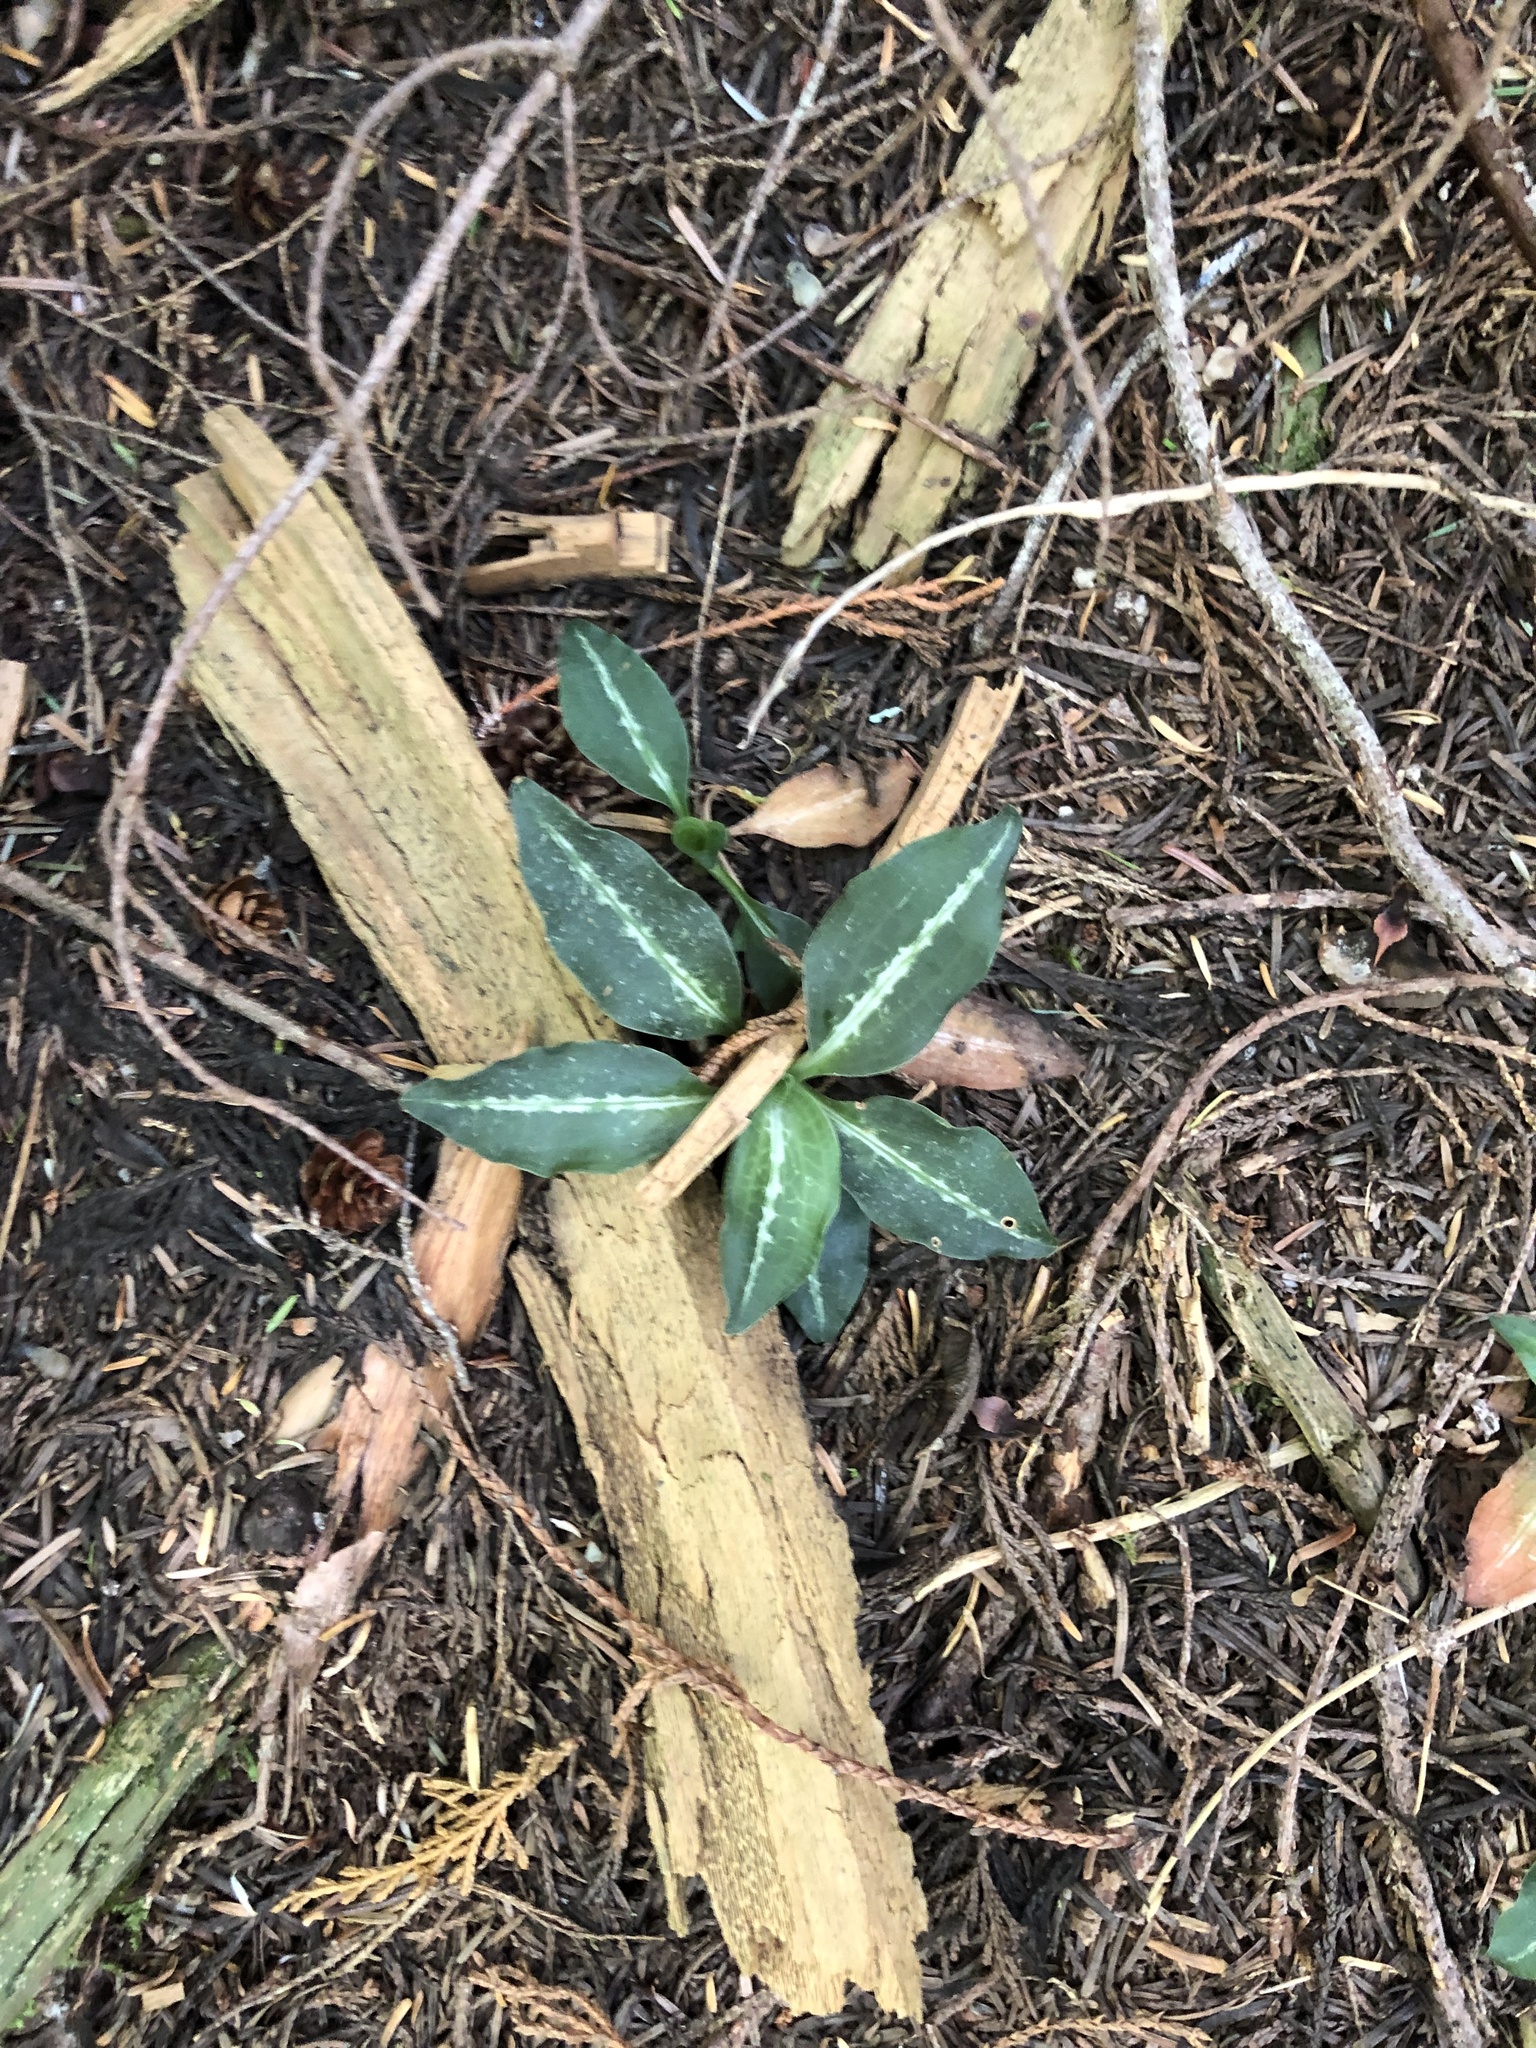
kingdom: Plantae
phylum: Tracheophyta
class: Liliopsida
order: Asparagales
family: Orchidaceae
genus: Goodyera
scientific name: Goodyera oblongifolia
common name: Giant rattlesnake-plantain
